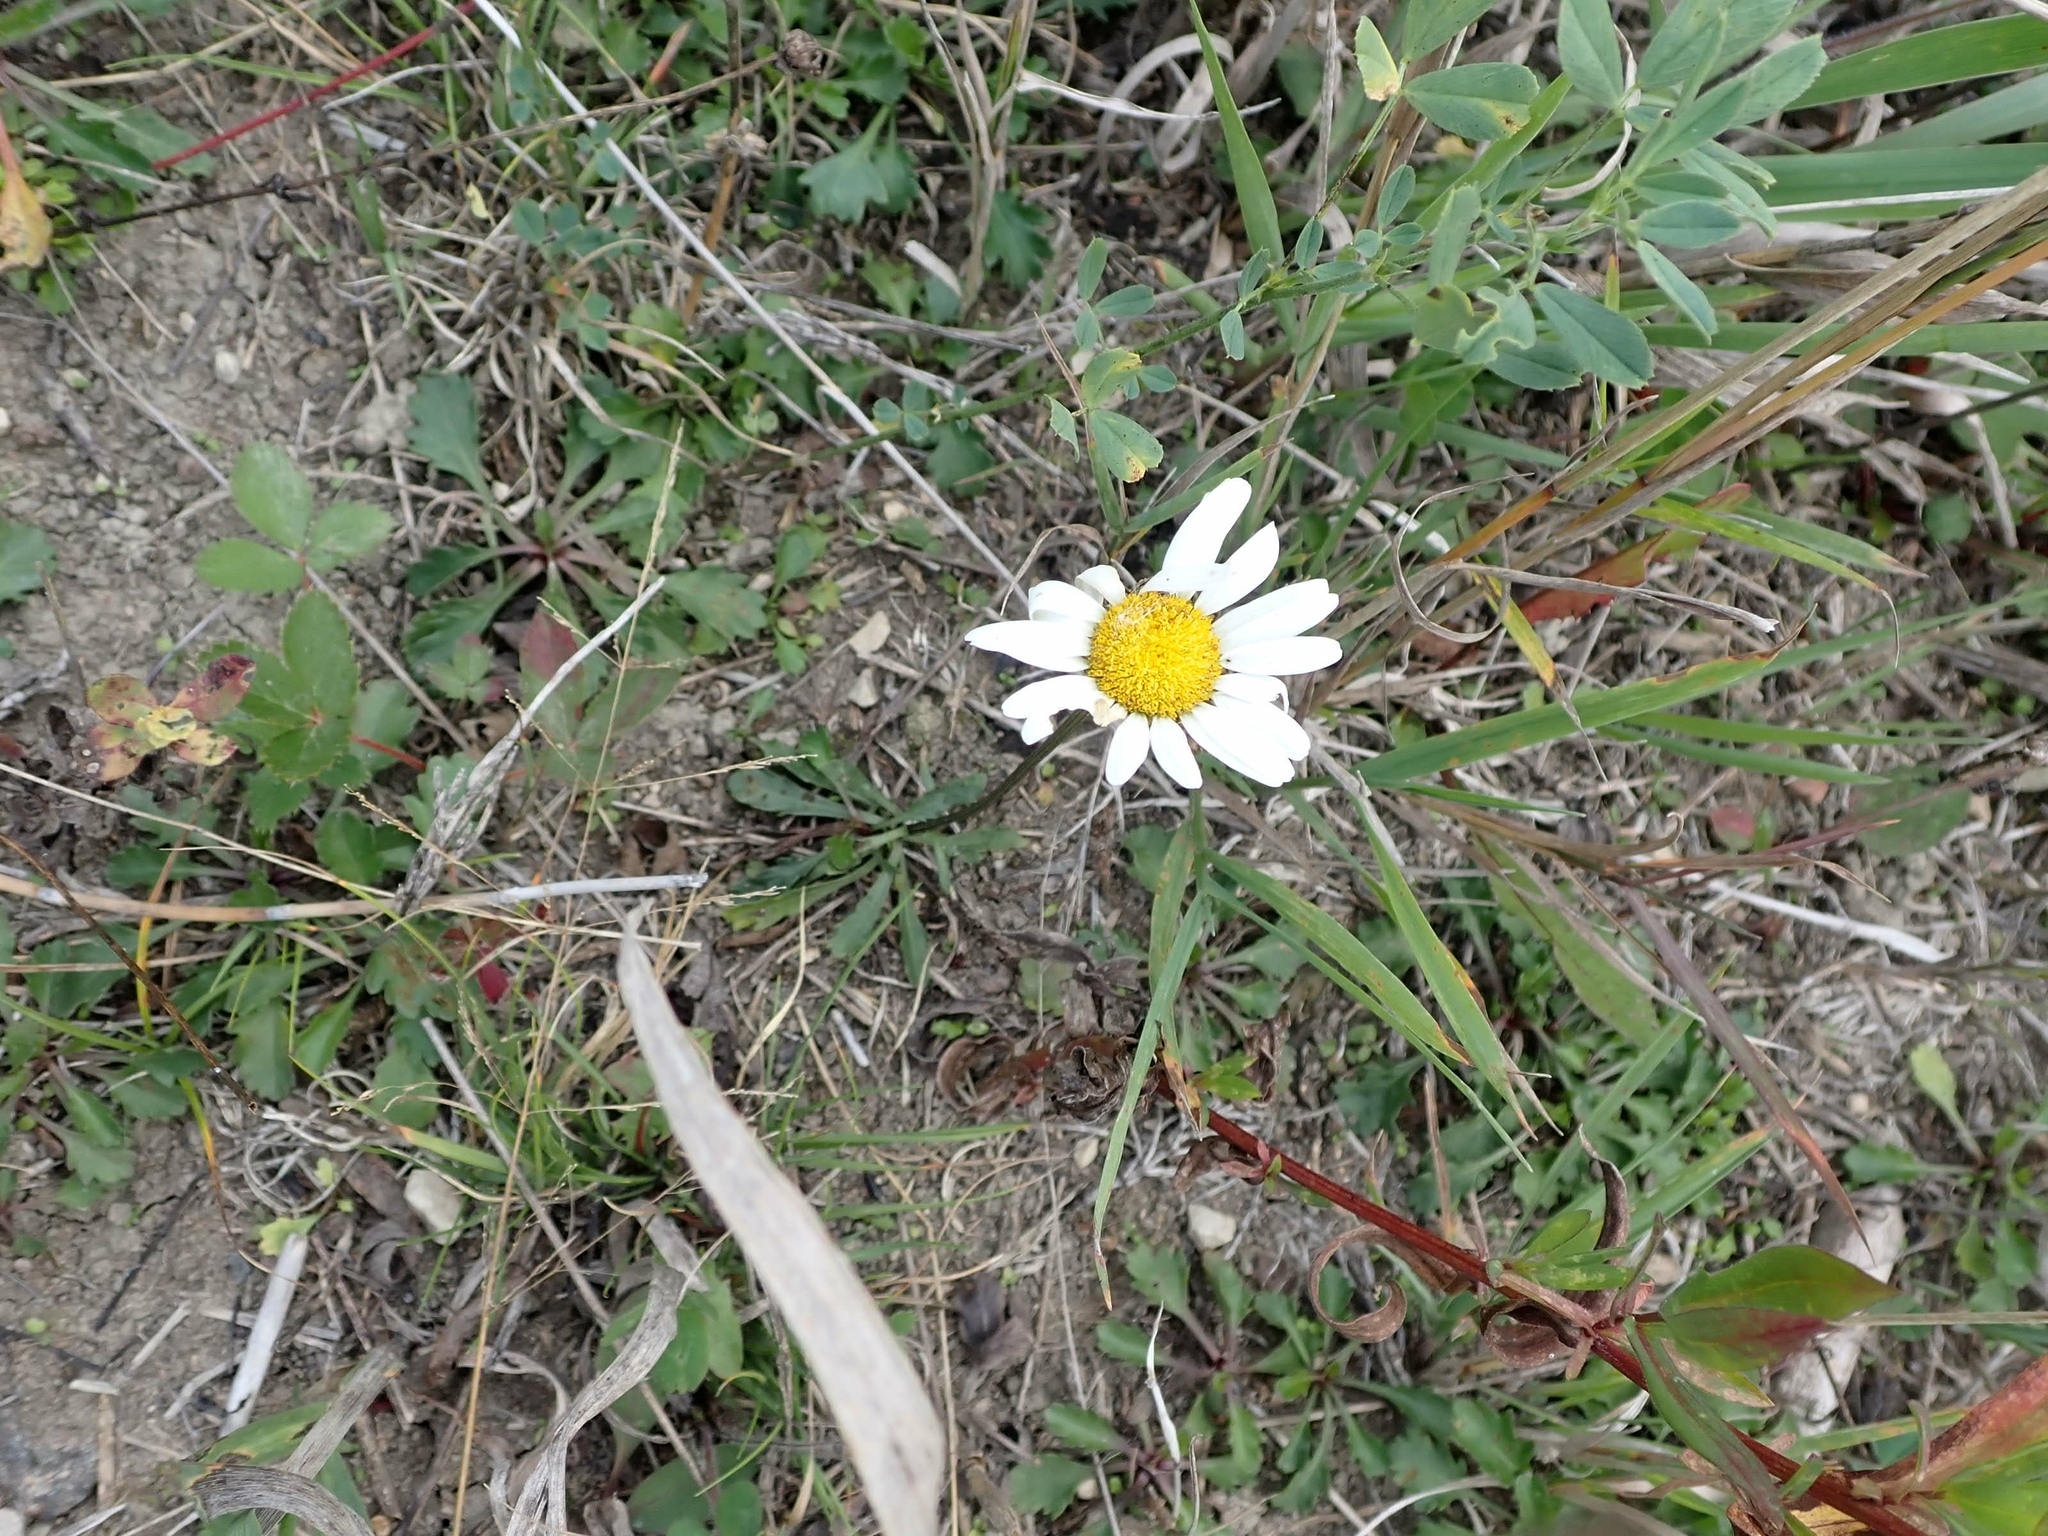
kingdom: Plantae
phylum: Tracheophyta
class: Magnoliopsida
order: Asterales
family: Asteraceae
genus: Leucanthemum
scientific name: Leucanthemum vulgare
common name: Oxeye daisy
